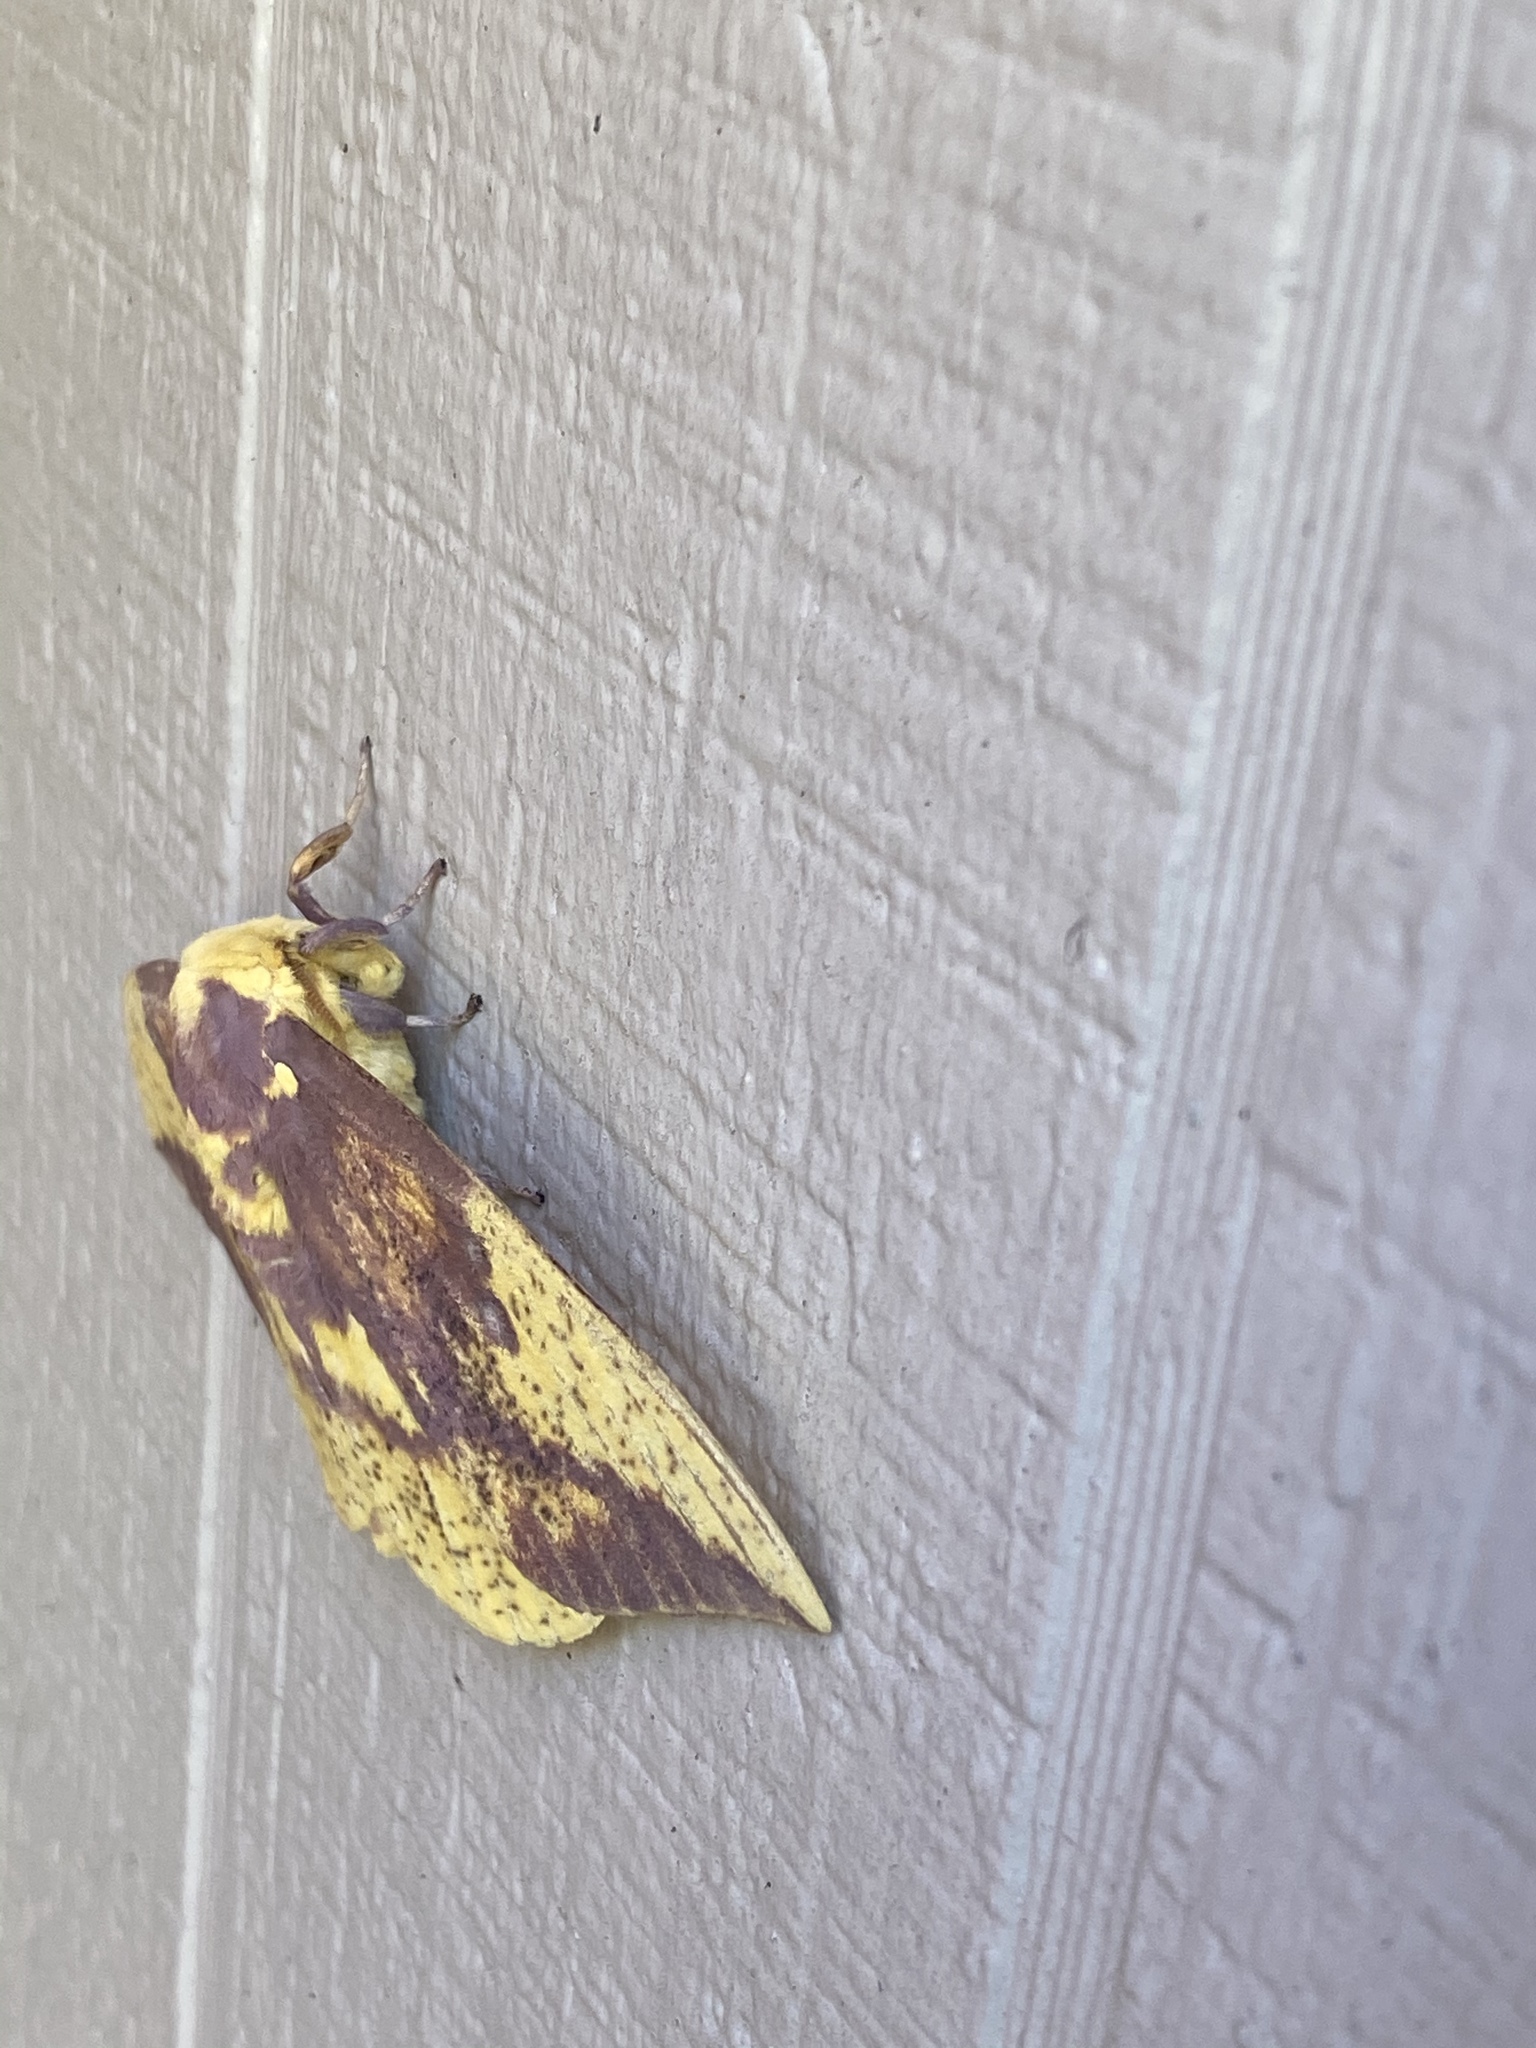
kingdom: Animalia
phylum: Arthropoda
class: Insecta
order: Lepidoptera
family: Saturniidae
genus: Eacles
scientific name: Eacles imperialis
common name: Imperial moth
